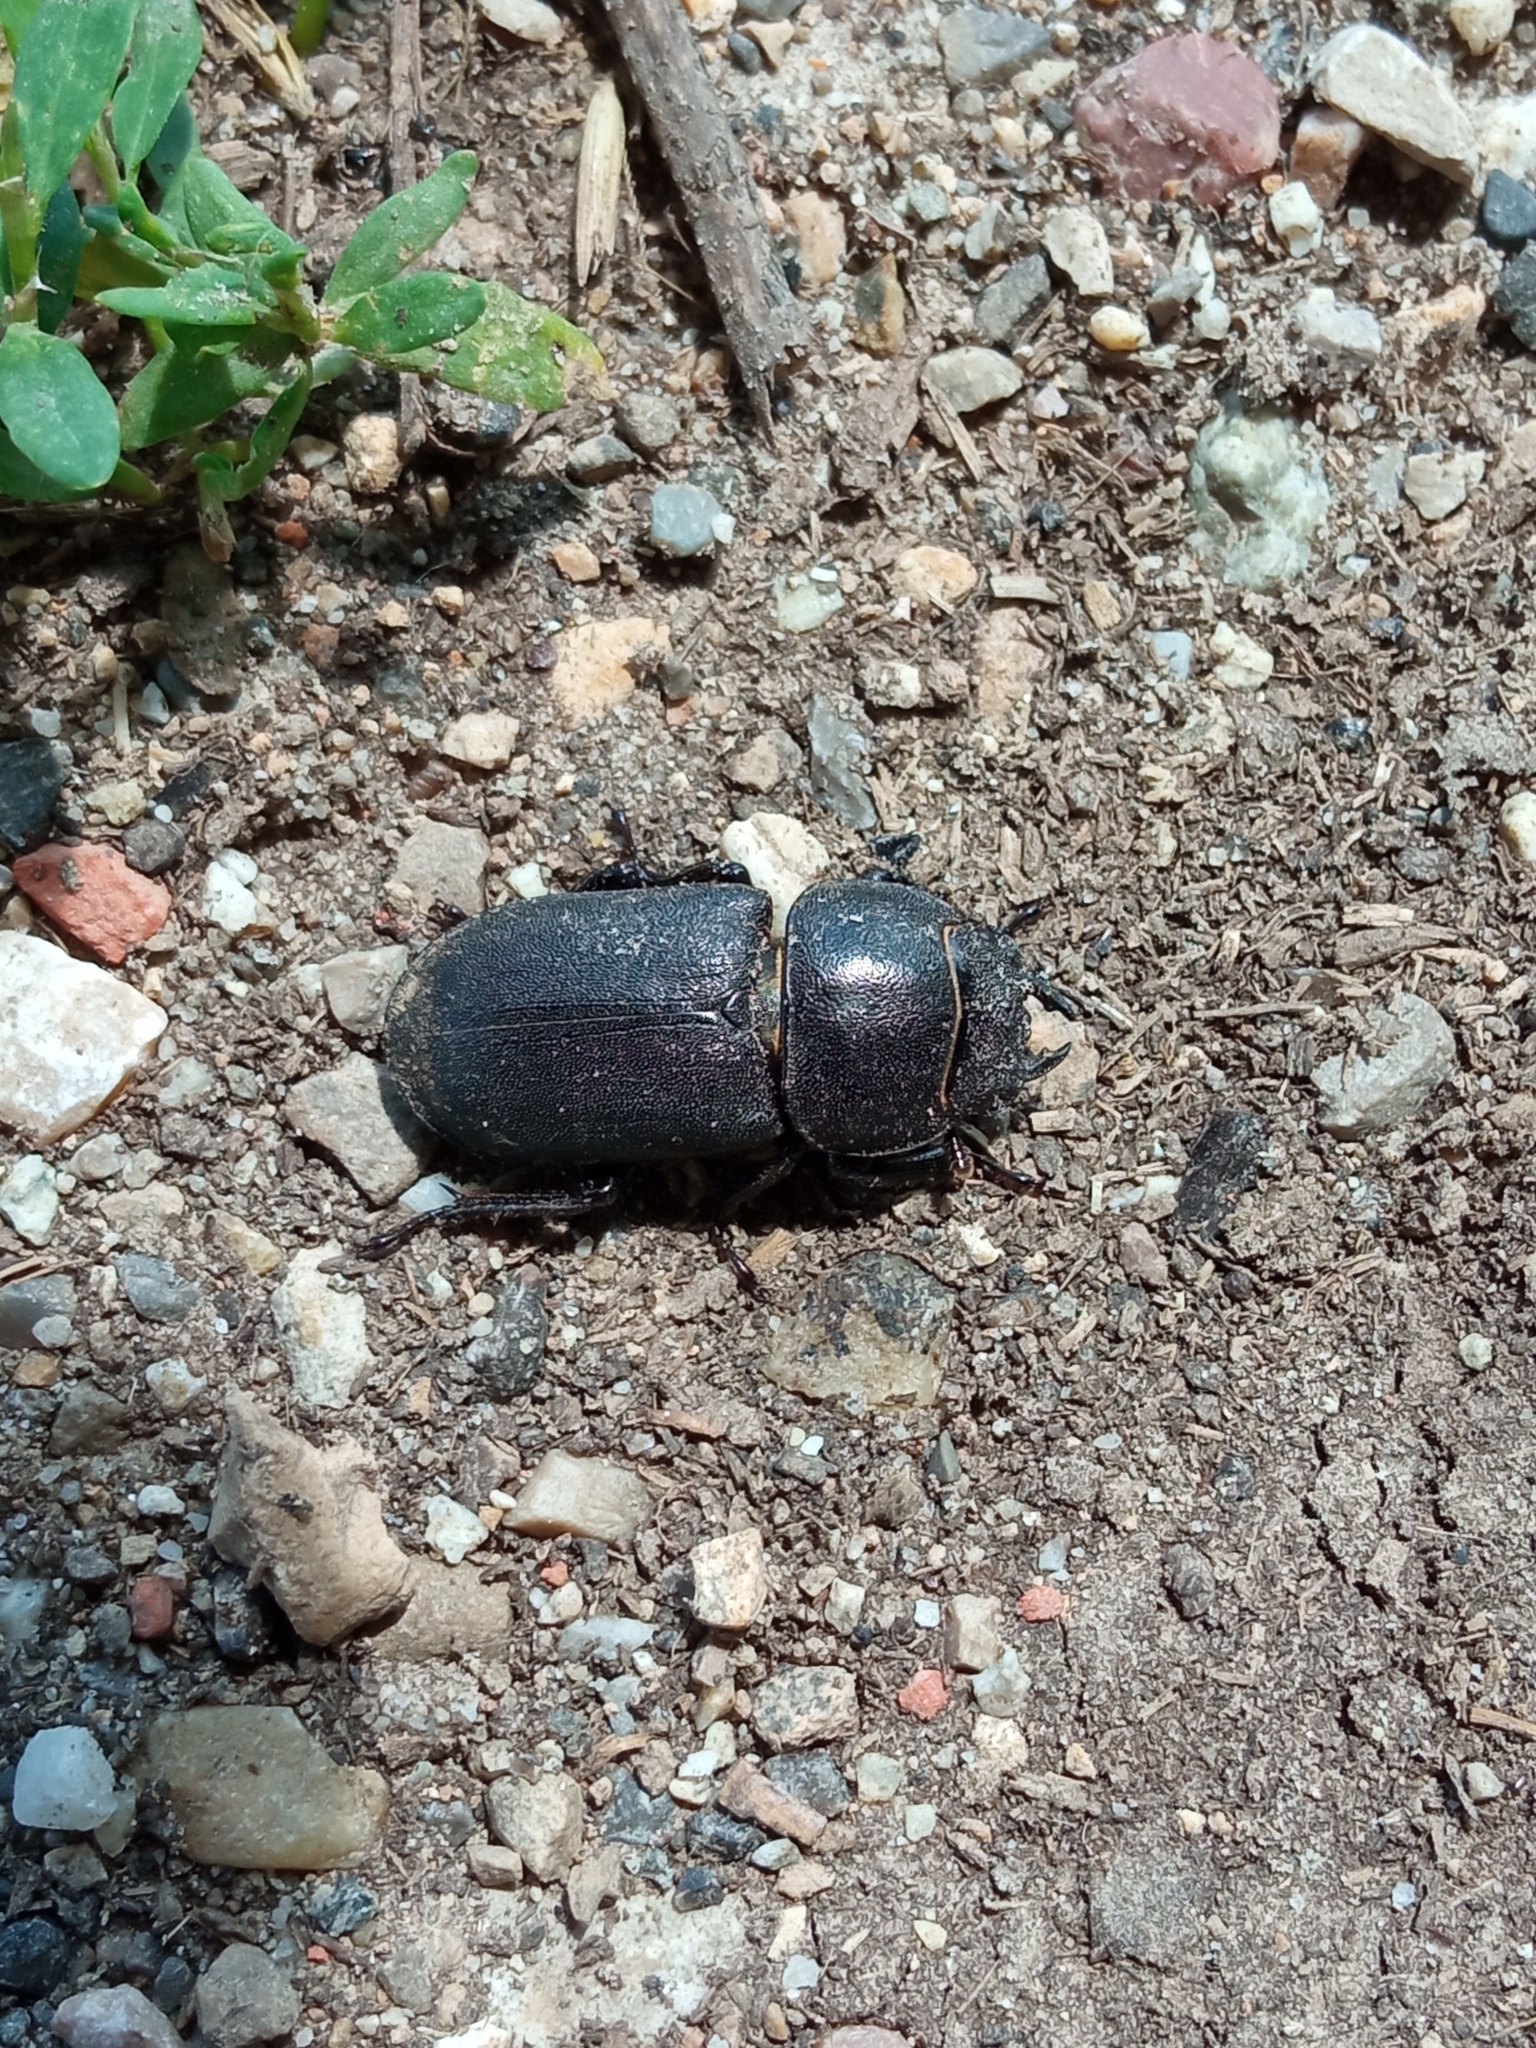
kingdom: Animalia
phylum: Arthropoda
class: Insecta
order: Coleoptera
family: Lucanidae
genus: Dorcus
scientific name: Dorcus parallelipipedus
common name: Lesser stag beetle
